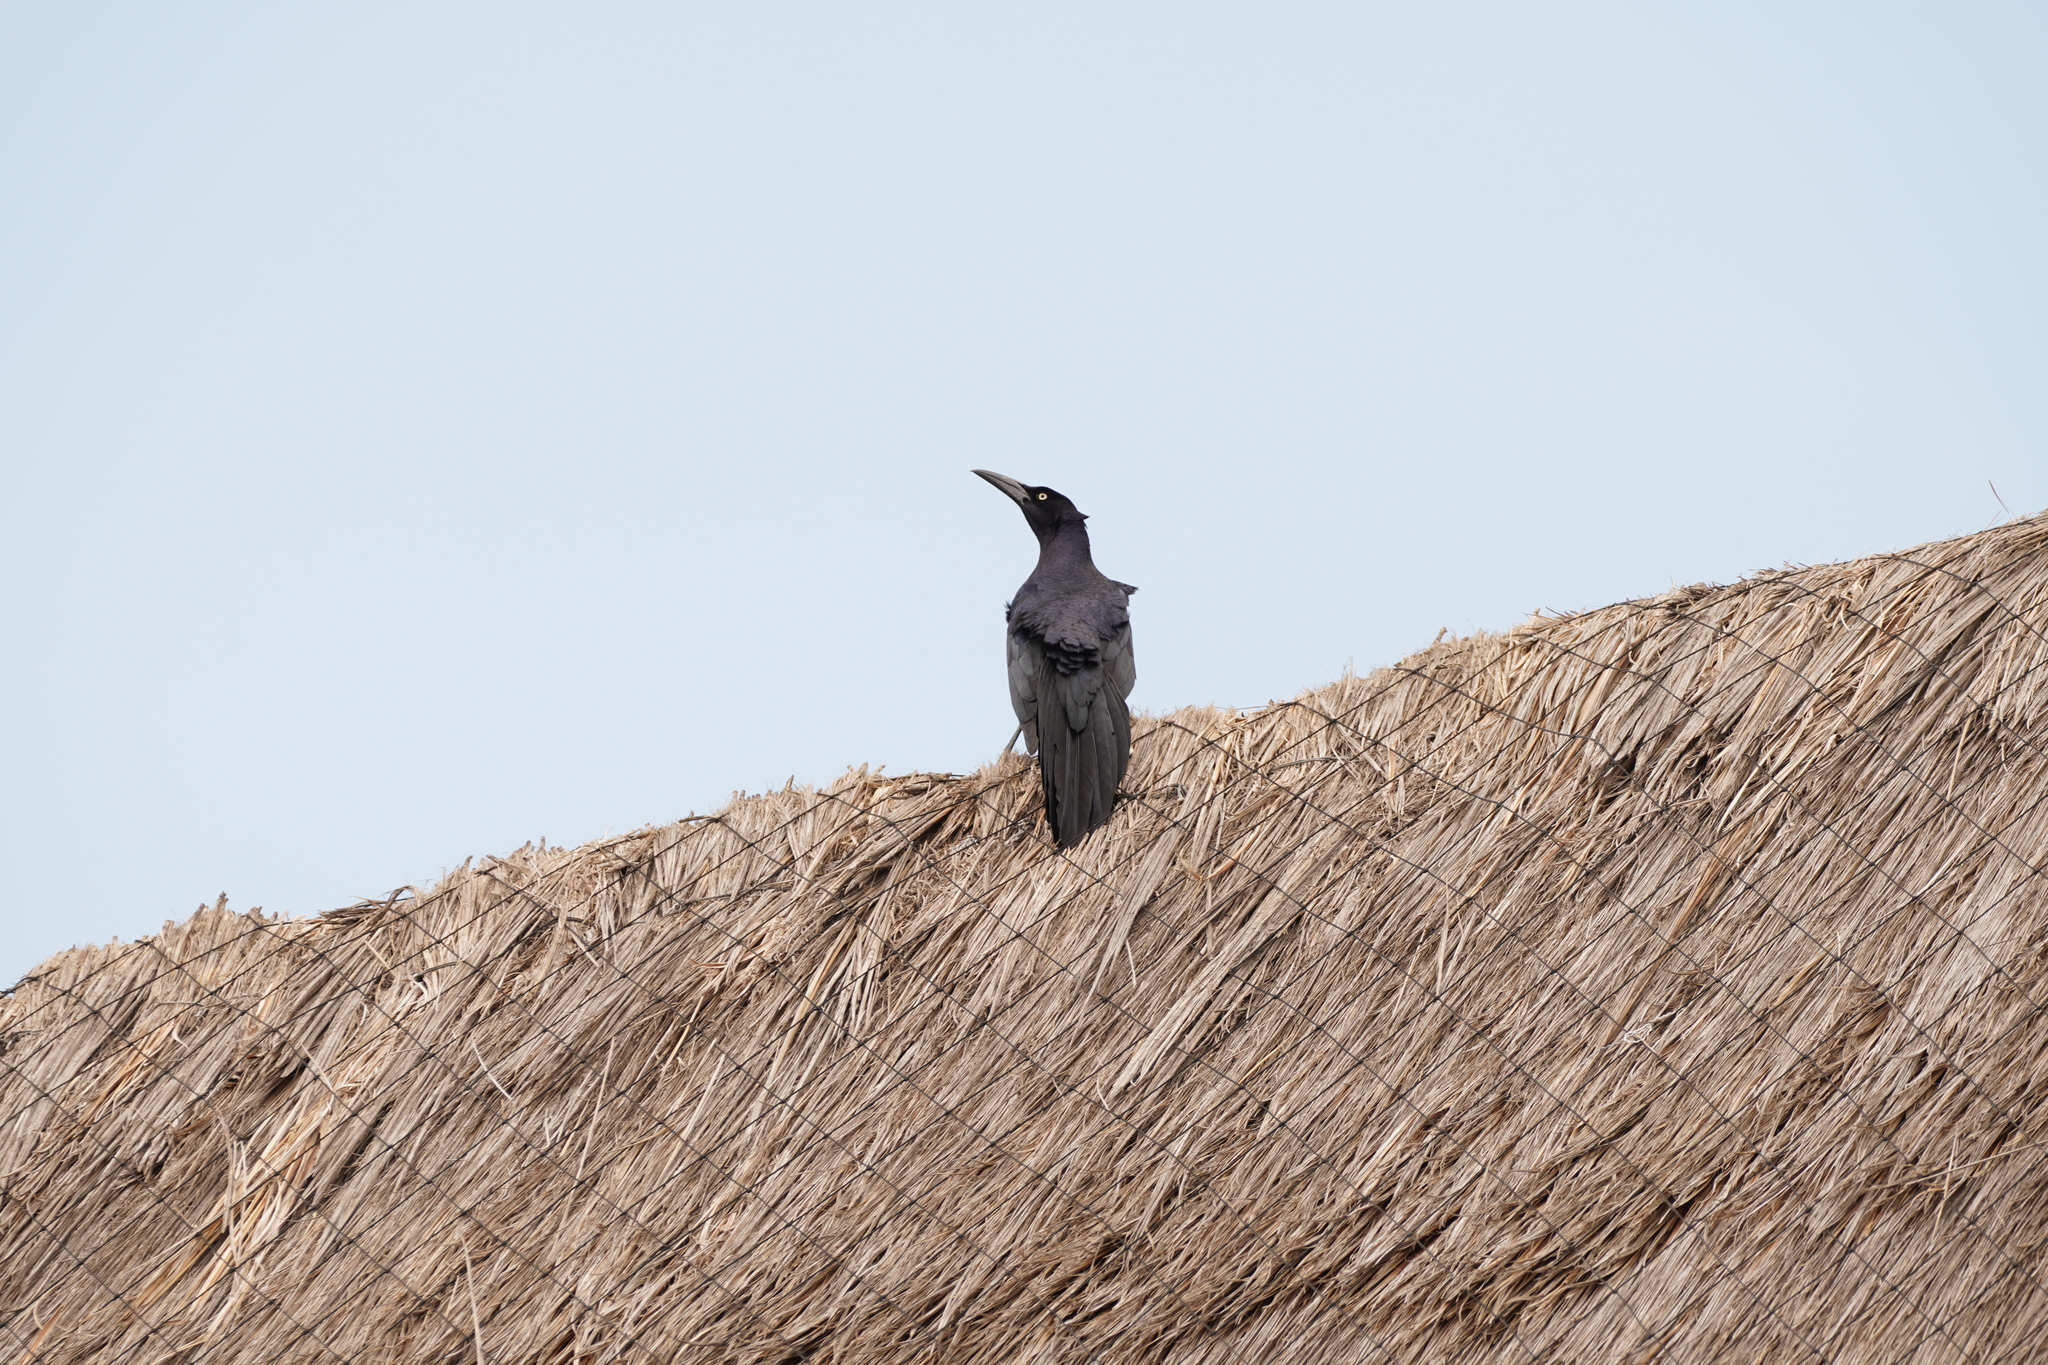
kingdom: Animalia
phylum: Chordata
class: Aves
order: Passeriformes
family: Icteridae
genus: Quiscalus
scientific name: Quiscalus mexicanus
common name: Great-tailed grackle
